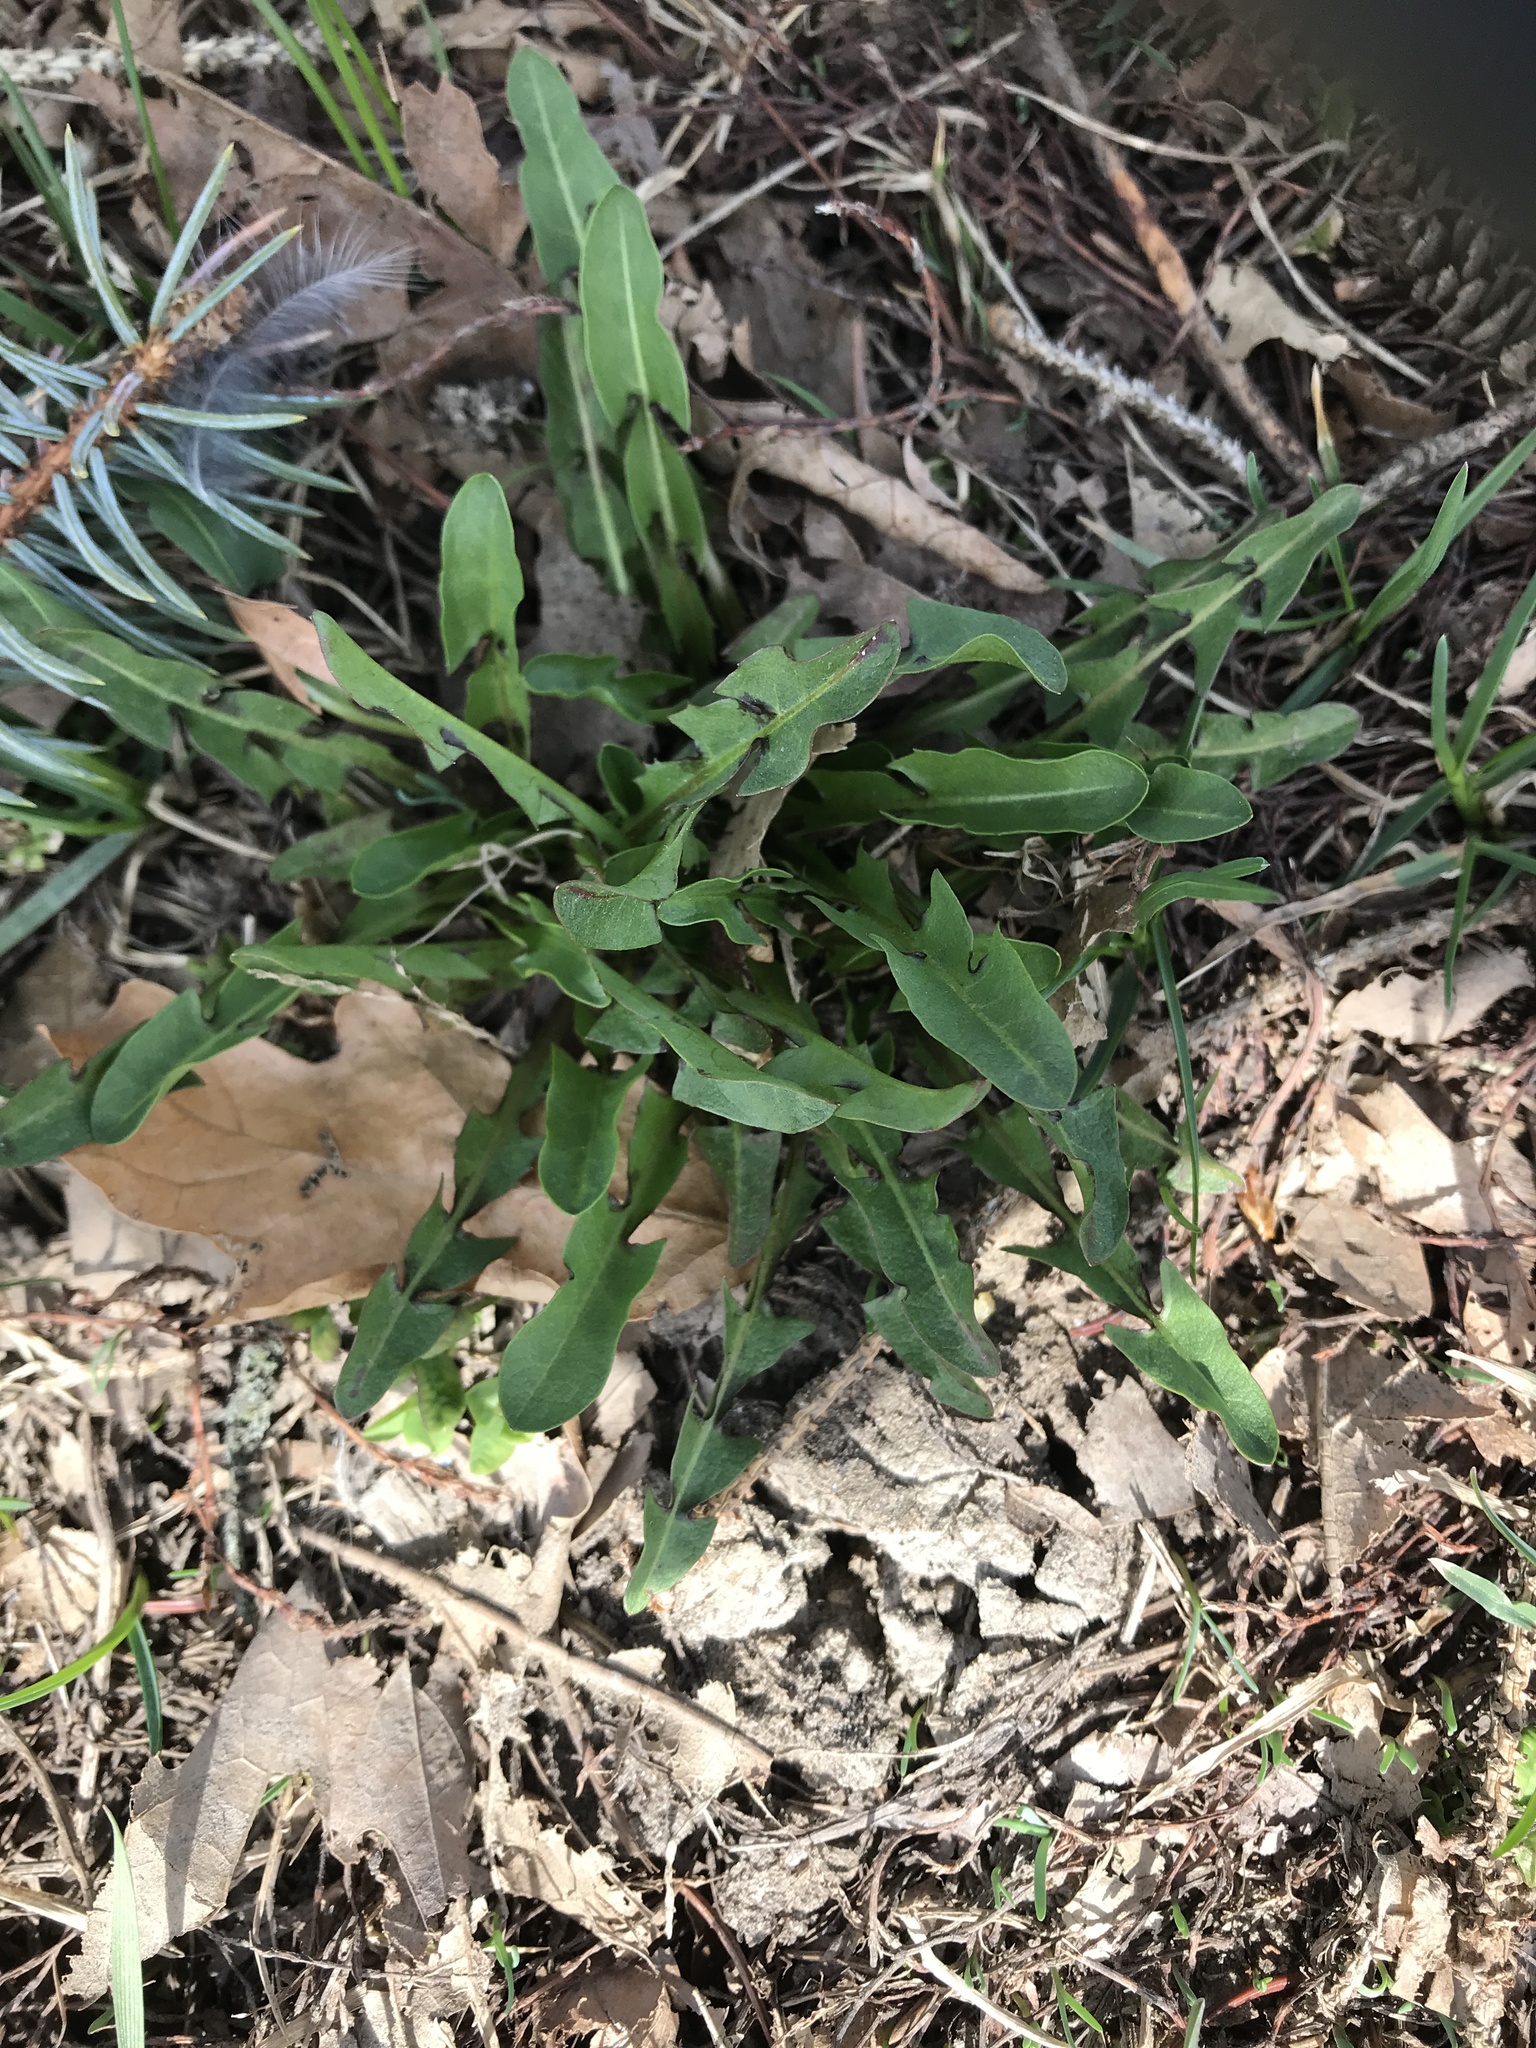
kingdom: Plantae
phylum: Tracheophyta
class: Magnoliopsida
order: Asterales
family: Asteraceae
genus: Taraxacum
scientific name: Taraxacum officinale
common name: Common dandelion
